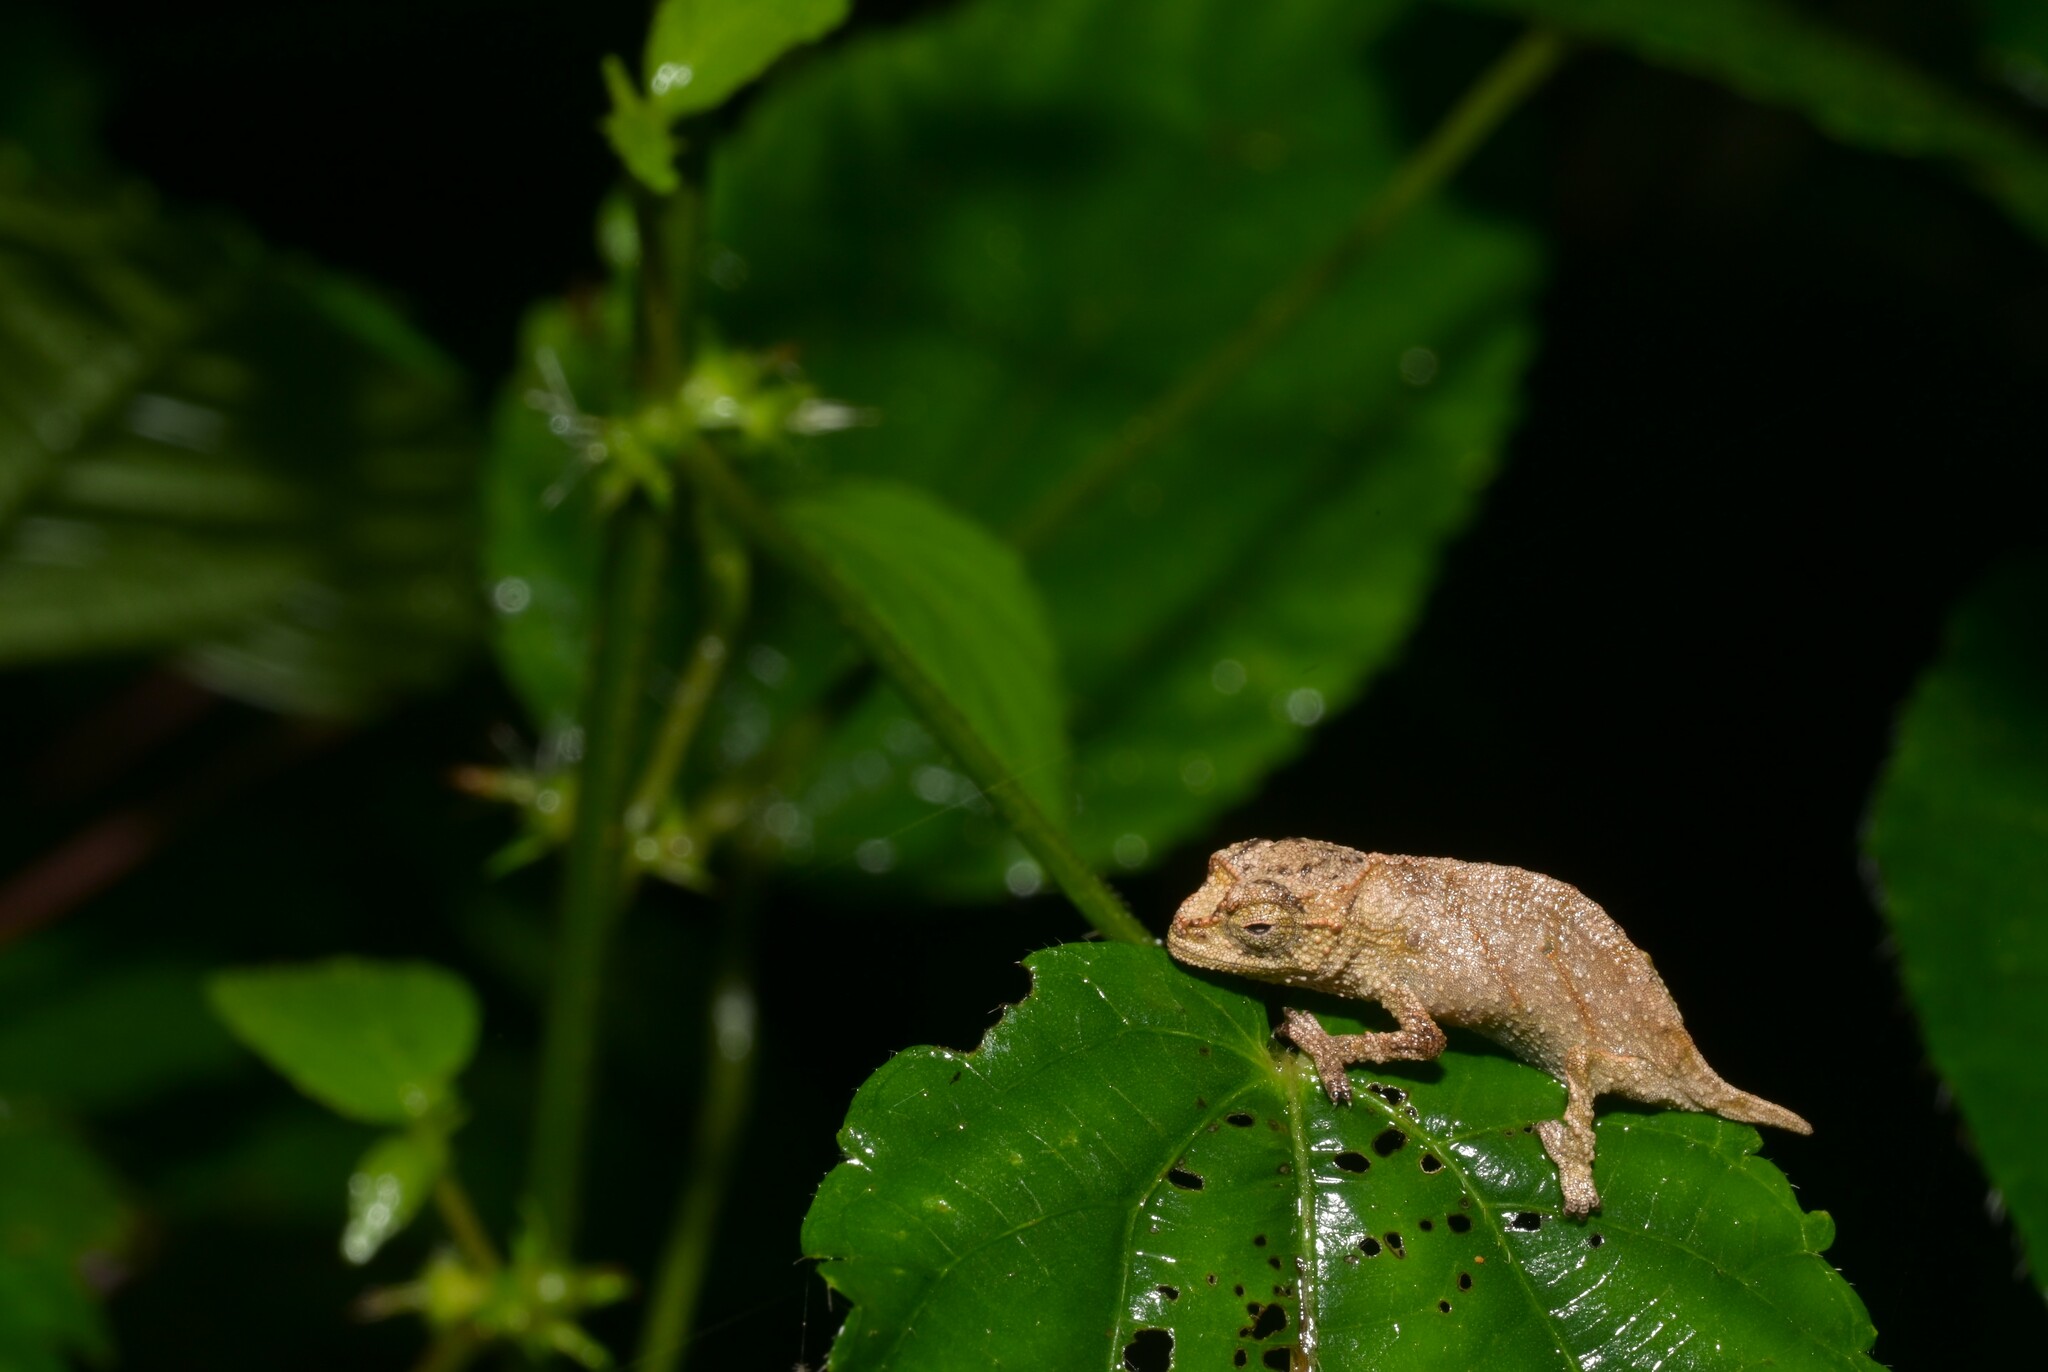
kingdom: Animalia
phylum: Chordata
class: Squamata
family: Chamaeleonidae
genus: Rhampholeon
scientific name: Rhampholeon nchisiensis
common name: South african stumptail chameleon
